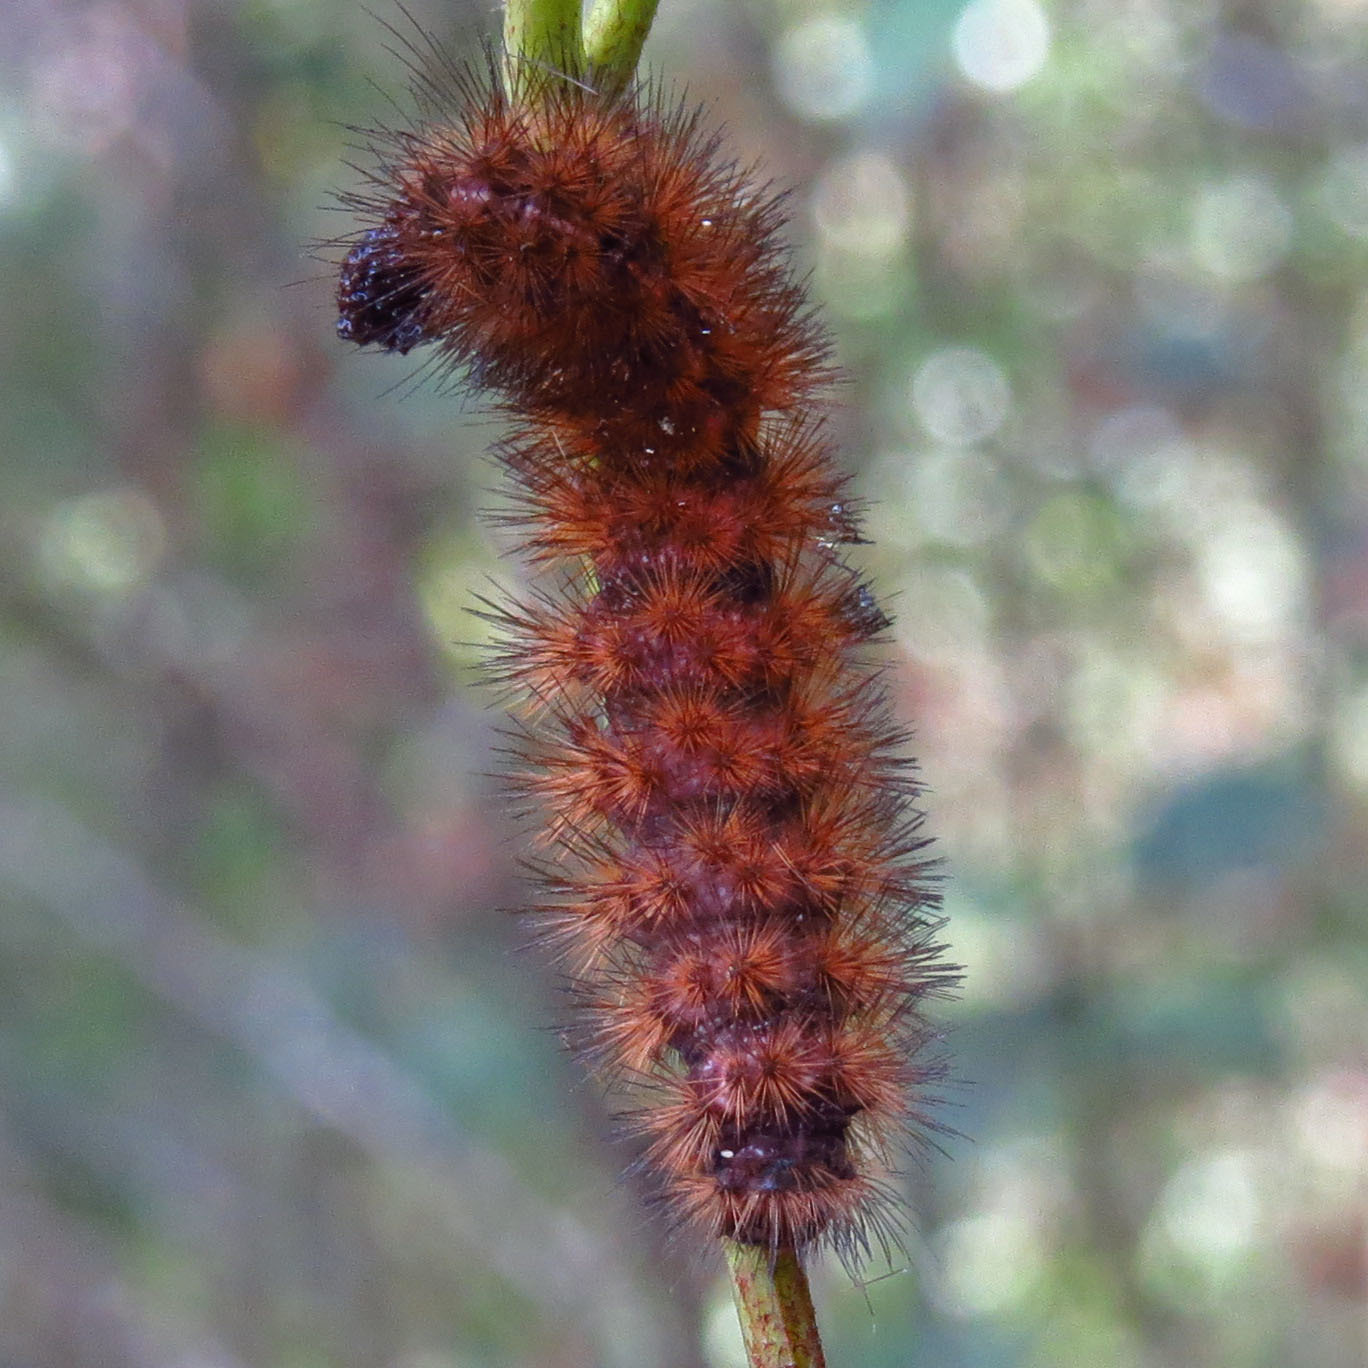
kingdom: Animalia
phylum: Arthropoda
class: Insecta
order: Lepidoptera
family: Erebidae
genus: Pyrrharctia
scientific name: Pyrrharctia isabella
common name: Isabella tiger moth
